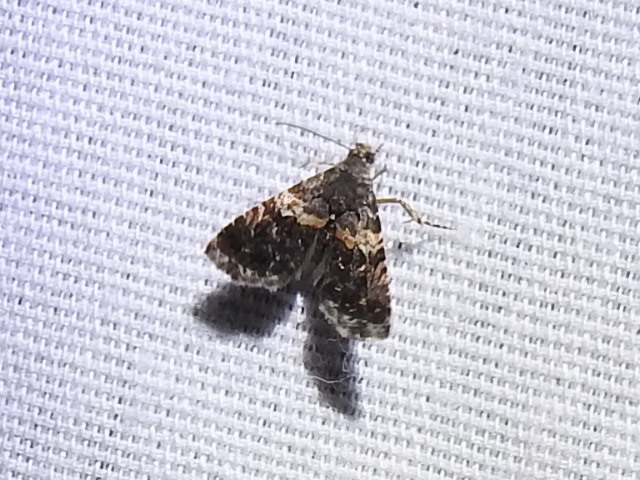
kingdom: Animalia
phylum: Arthropoda
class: Insecta
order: Lepidoptera
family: Noctuidae
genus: Tripudia
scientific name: Tripudia luxuriosa
